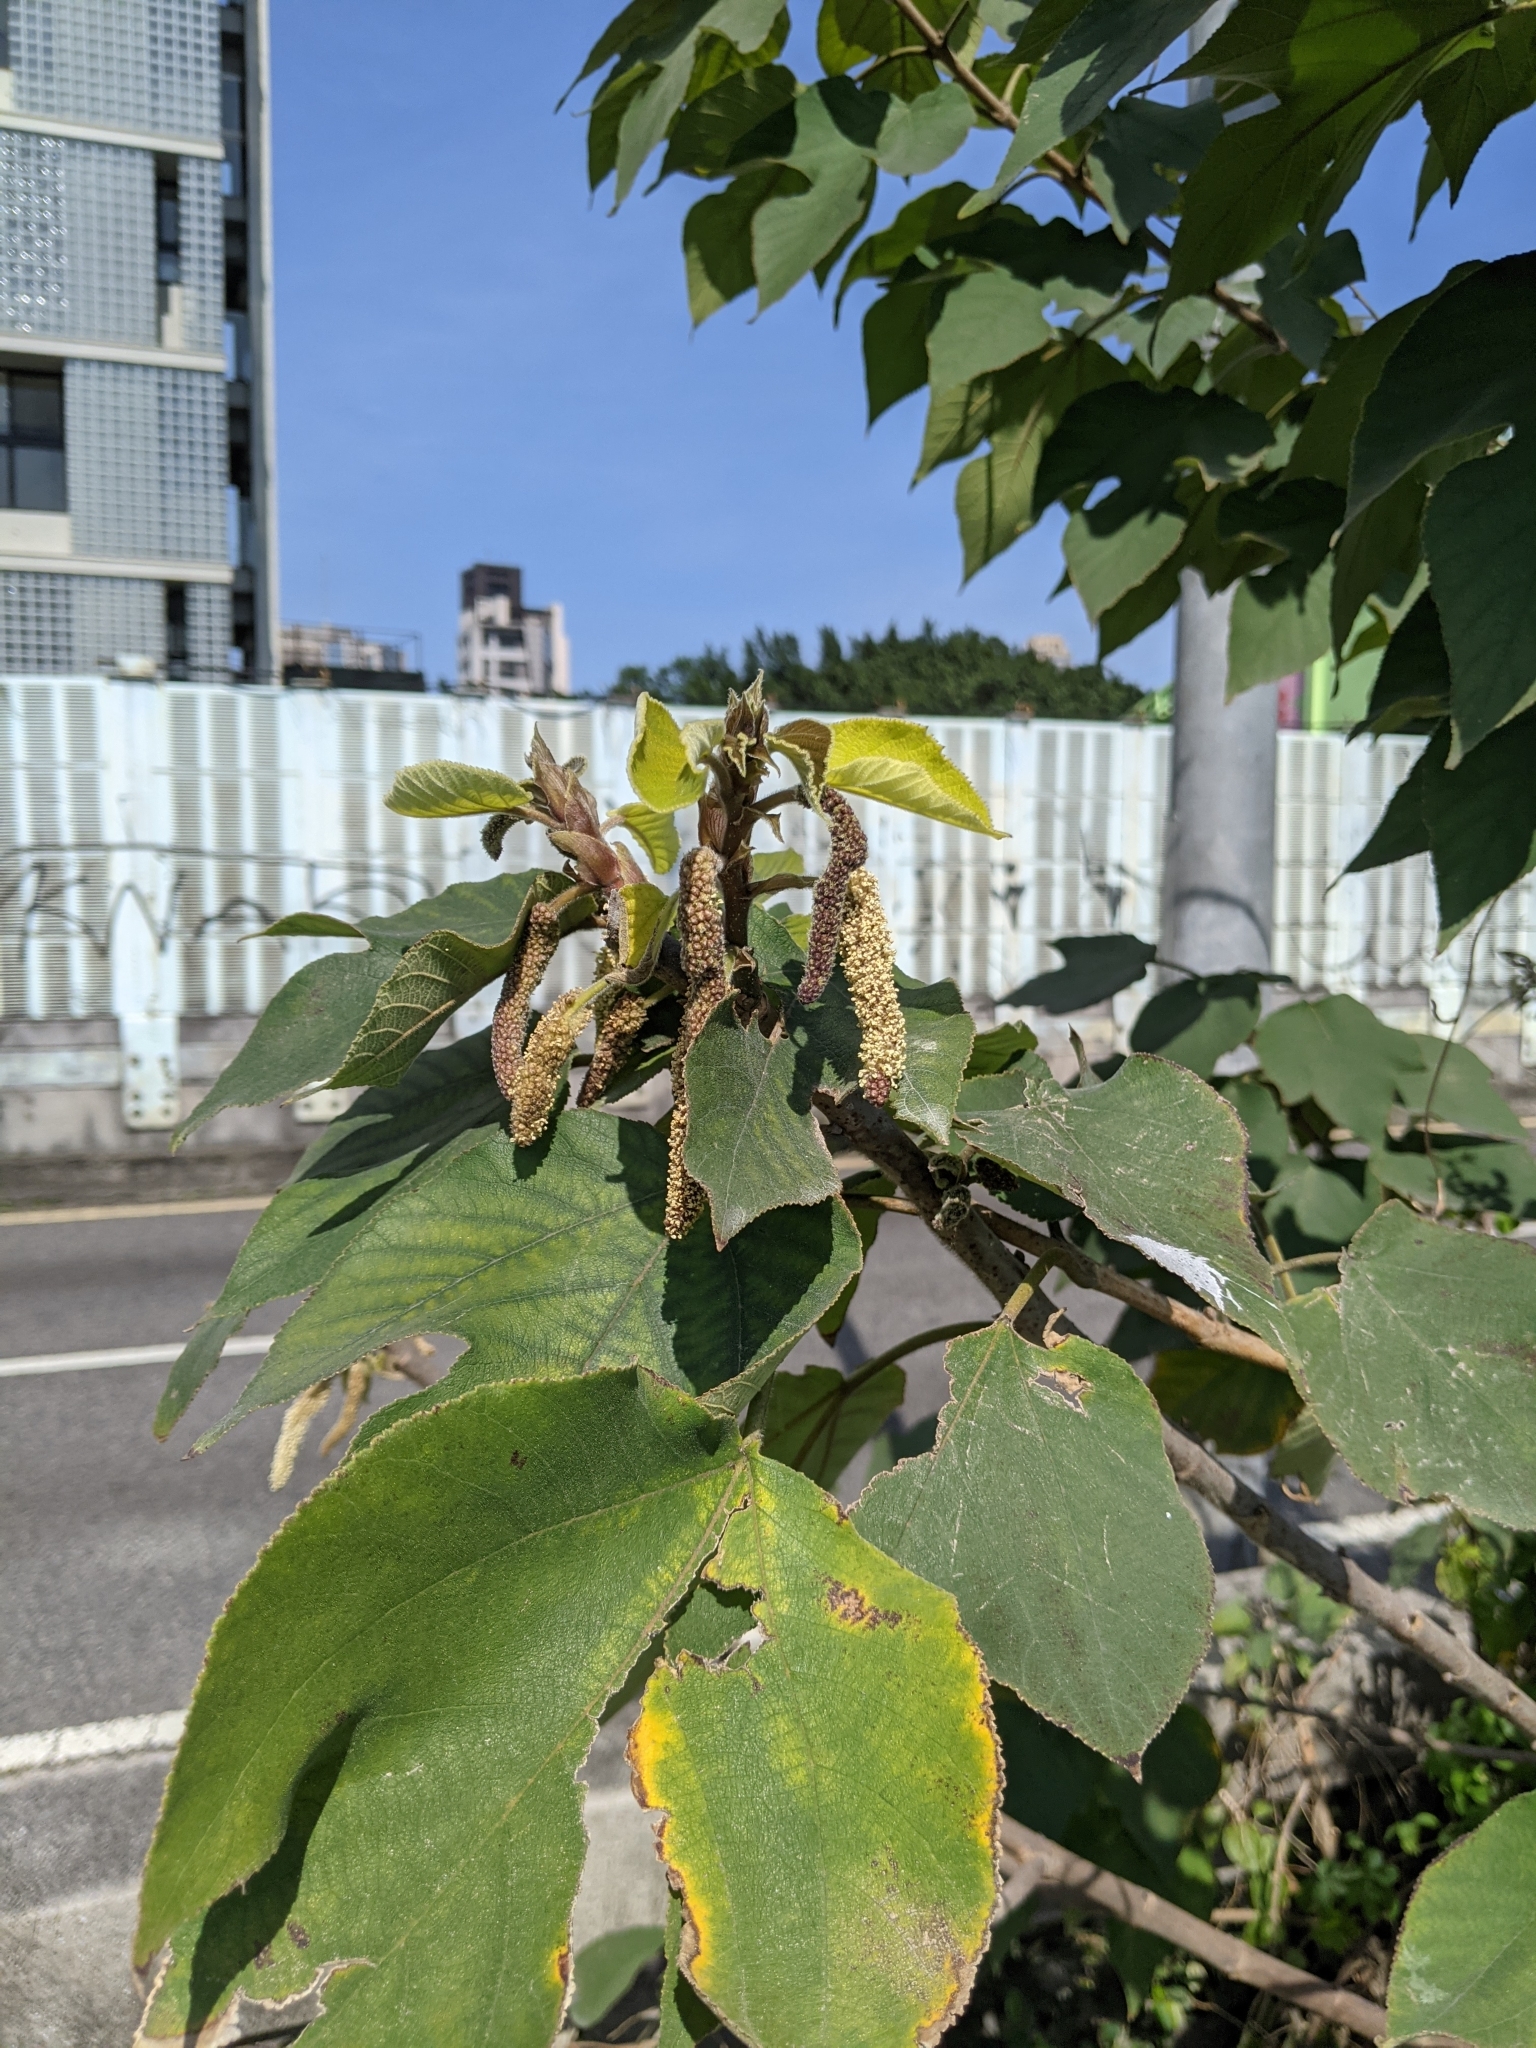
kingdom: Plantae
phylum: Tracheophyta
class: Magnoliopsida
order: Rosales
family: Moraceae
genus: Broussonetia
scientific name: Broussonetia papyrifera
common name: Paper mulberry
